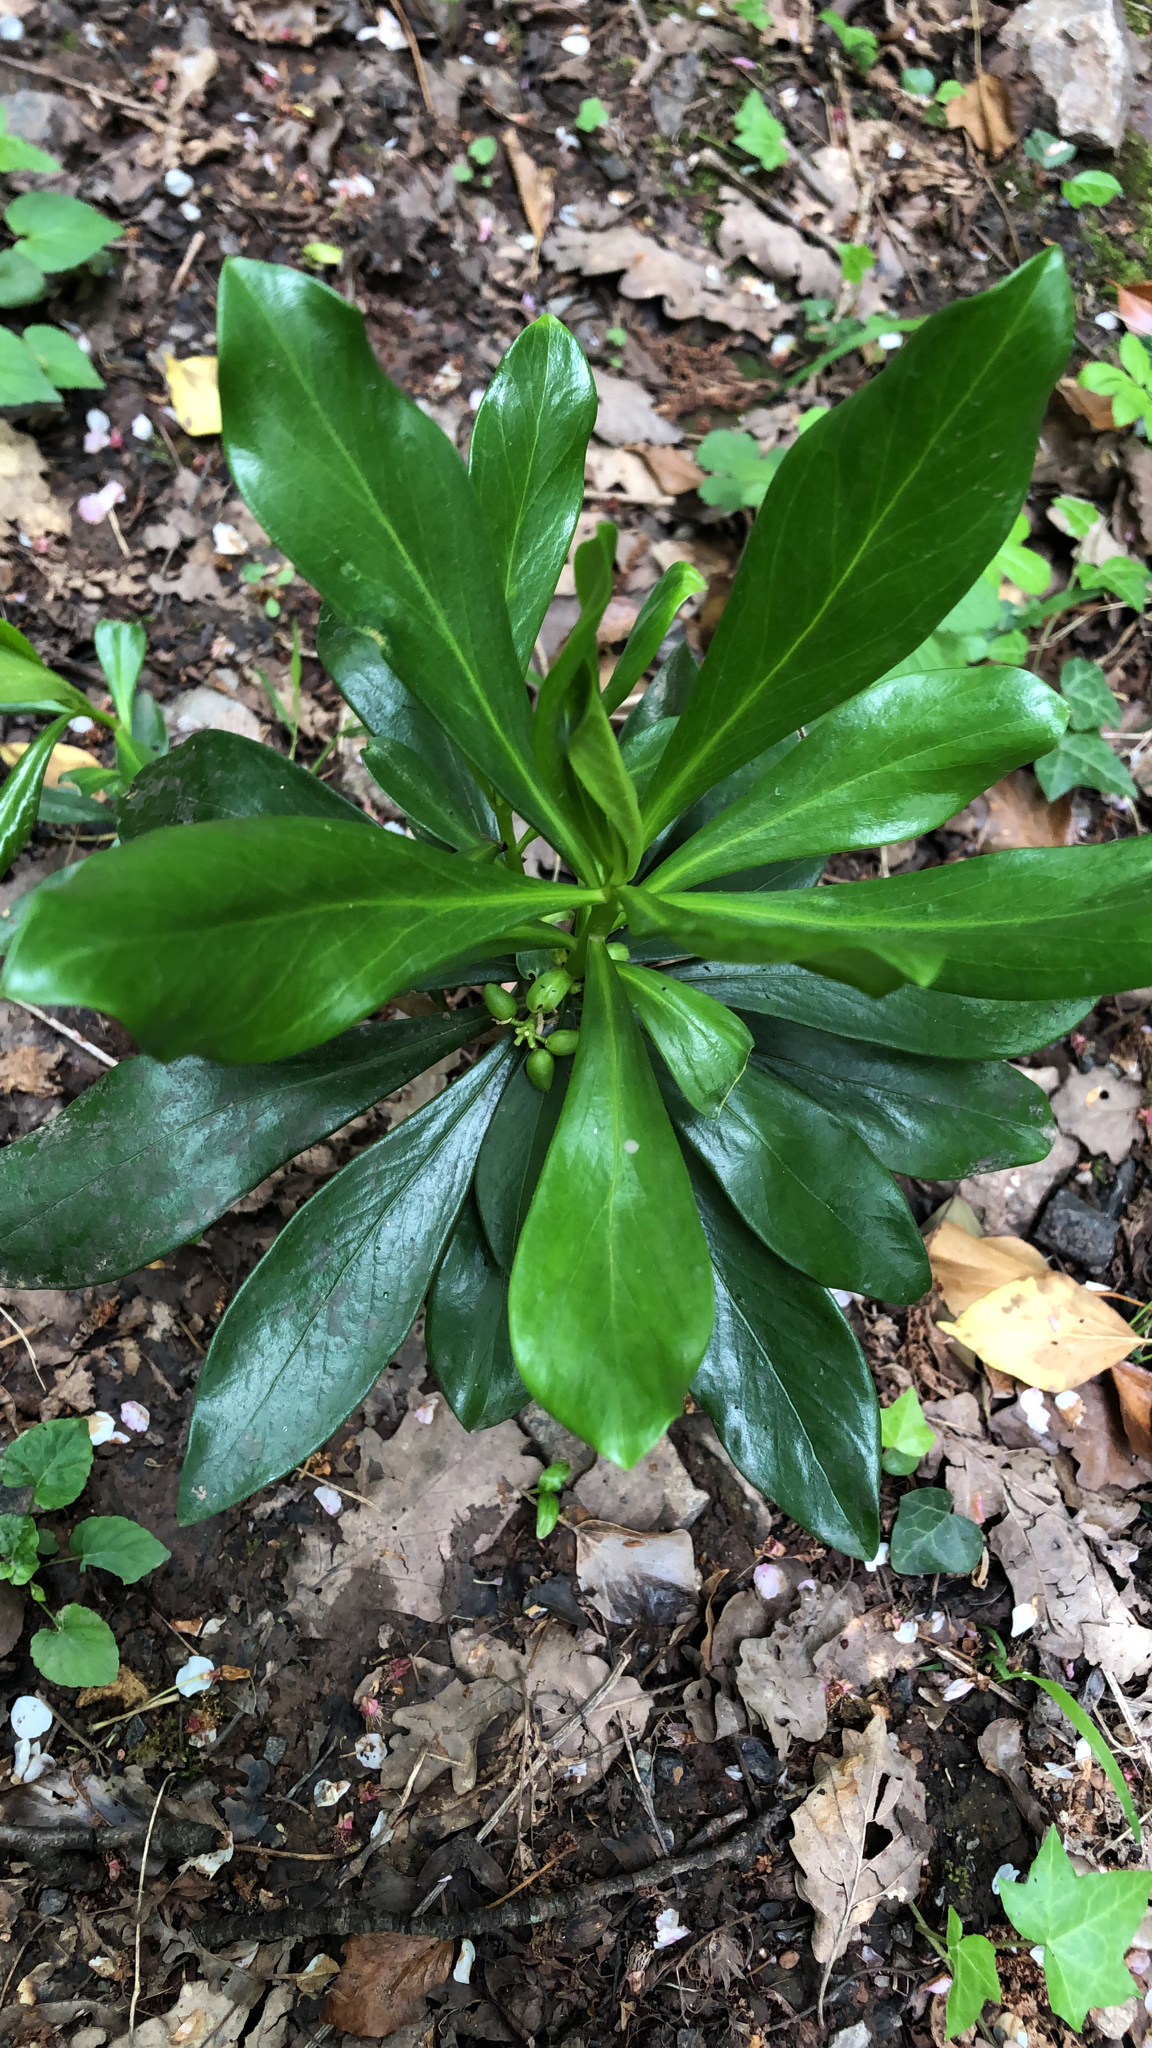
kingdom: Plantae
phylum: Tracheophyta
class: Magnoliopsida
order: Malvales
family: Thymelaeaceae
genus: Daphne
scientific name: Daphne laureola
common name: Spurge-laurel
